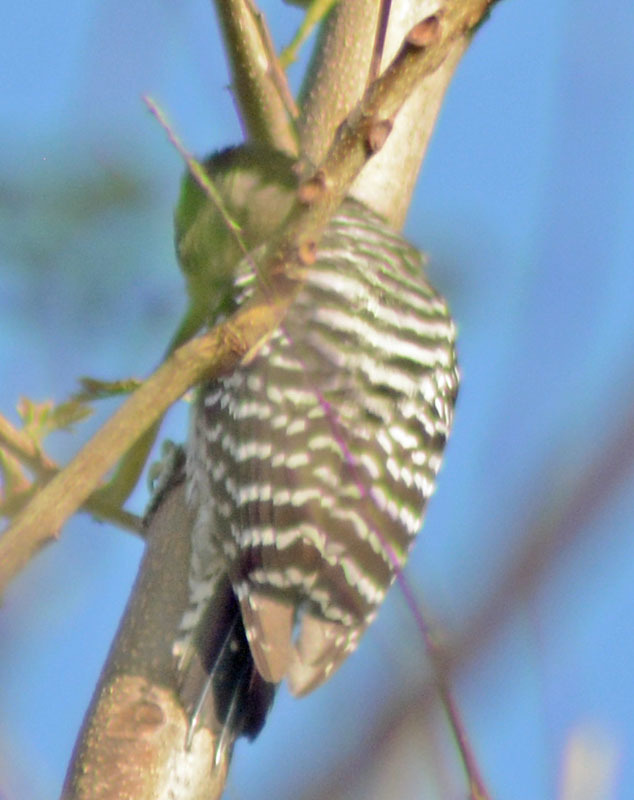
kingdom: Animalia
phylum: Chordata
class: Aves
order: Piciformes
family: Picidae
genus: Dryobates
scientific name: Dryobates scalaris
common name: Ladder-backed woodpecker
